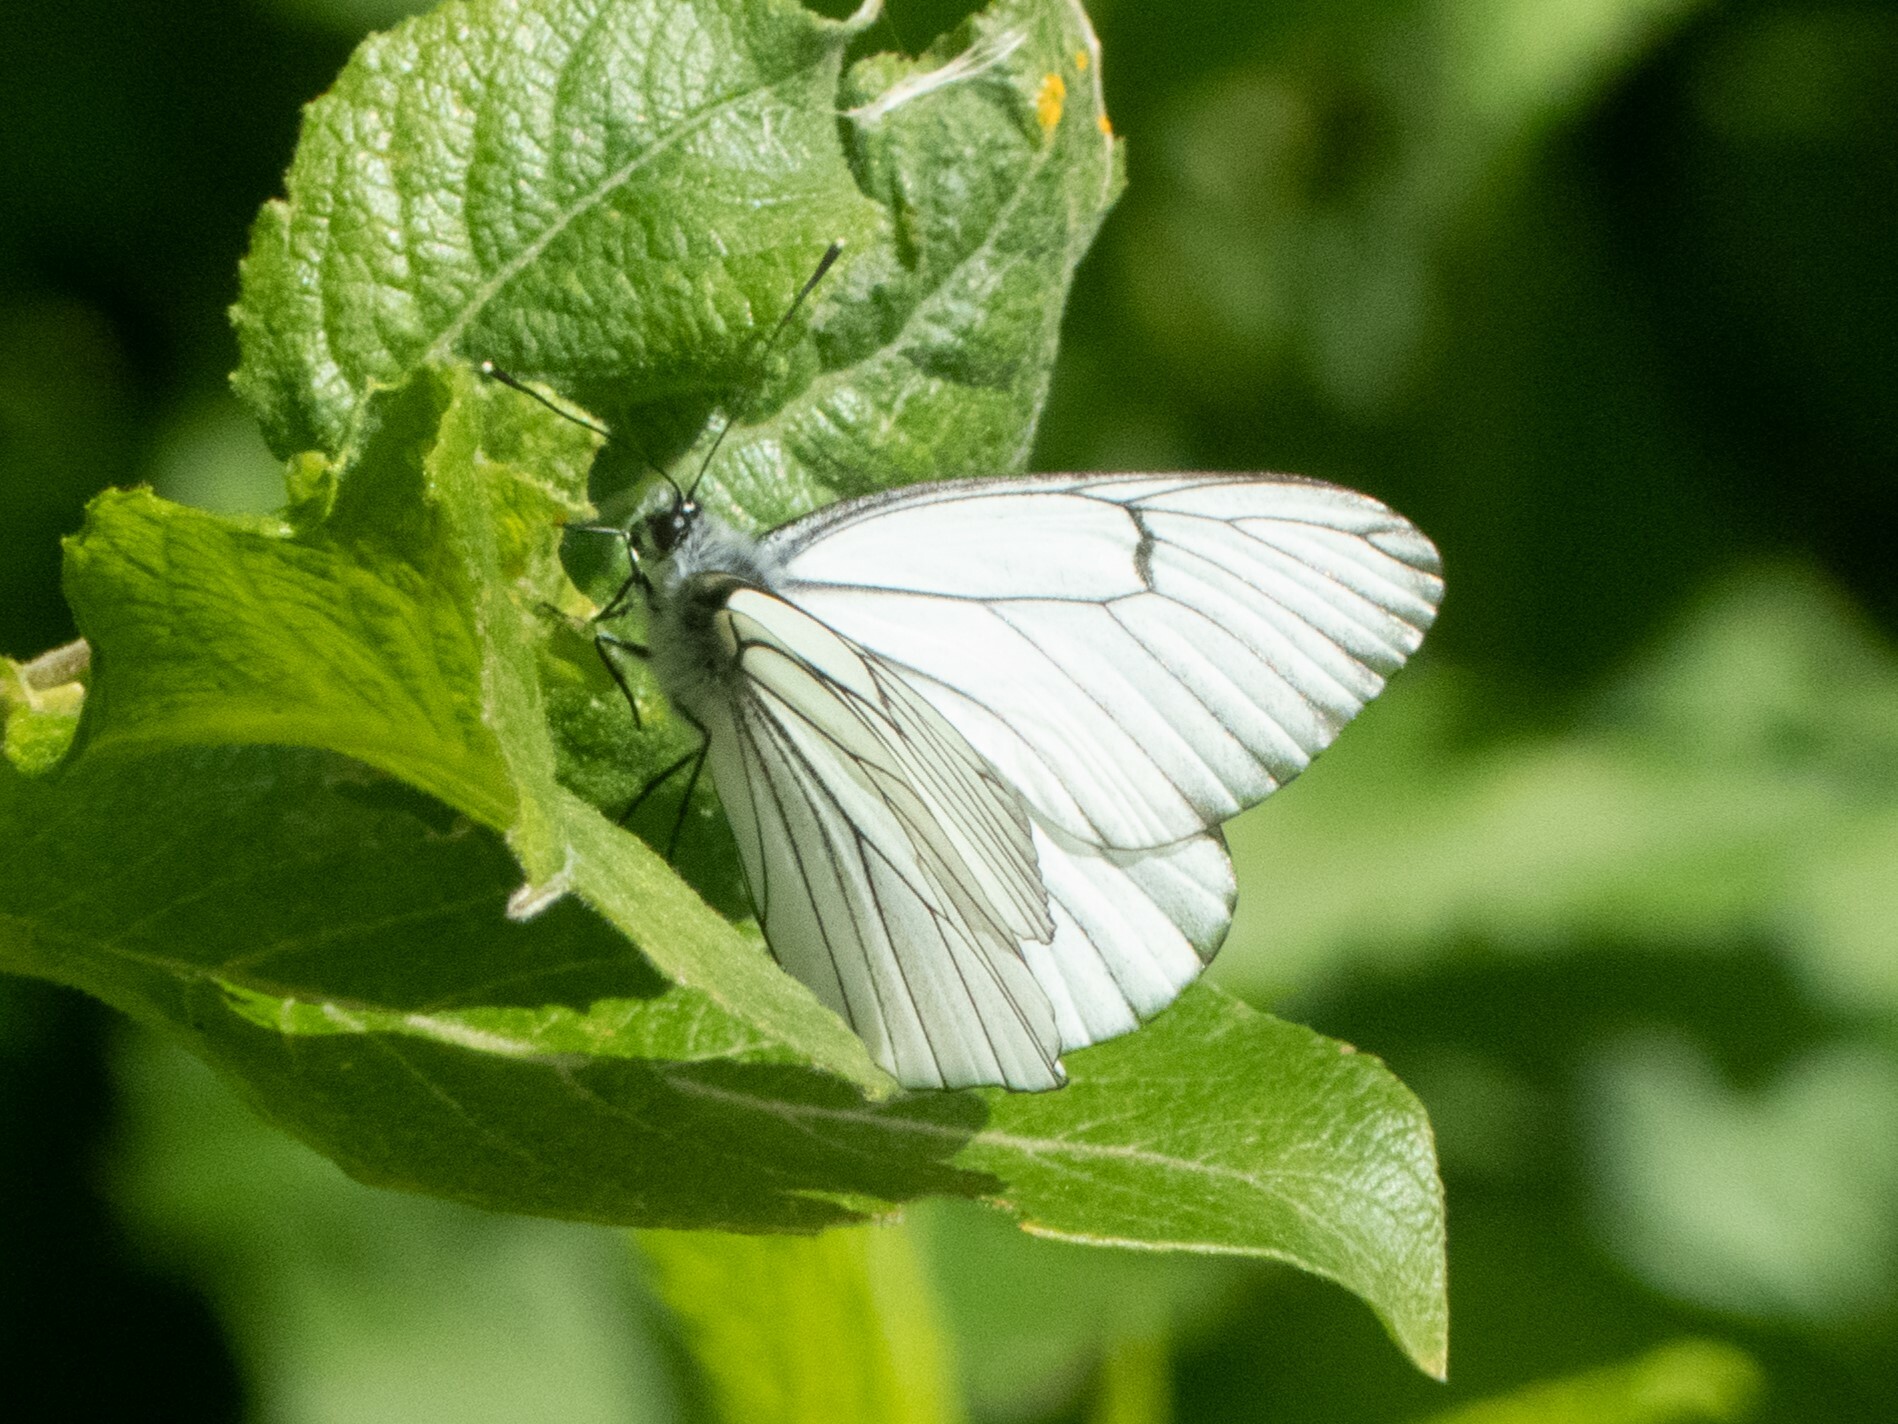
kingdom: Animalia
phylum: Arthropoda
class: Insecta
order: Lepidoptera
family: Pieridae
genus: Aporia
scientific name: Aporia crataegi
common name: Black-veined white
